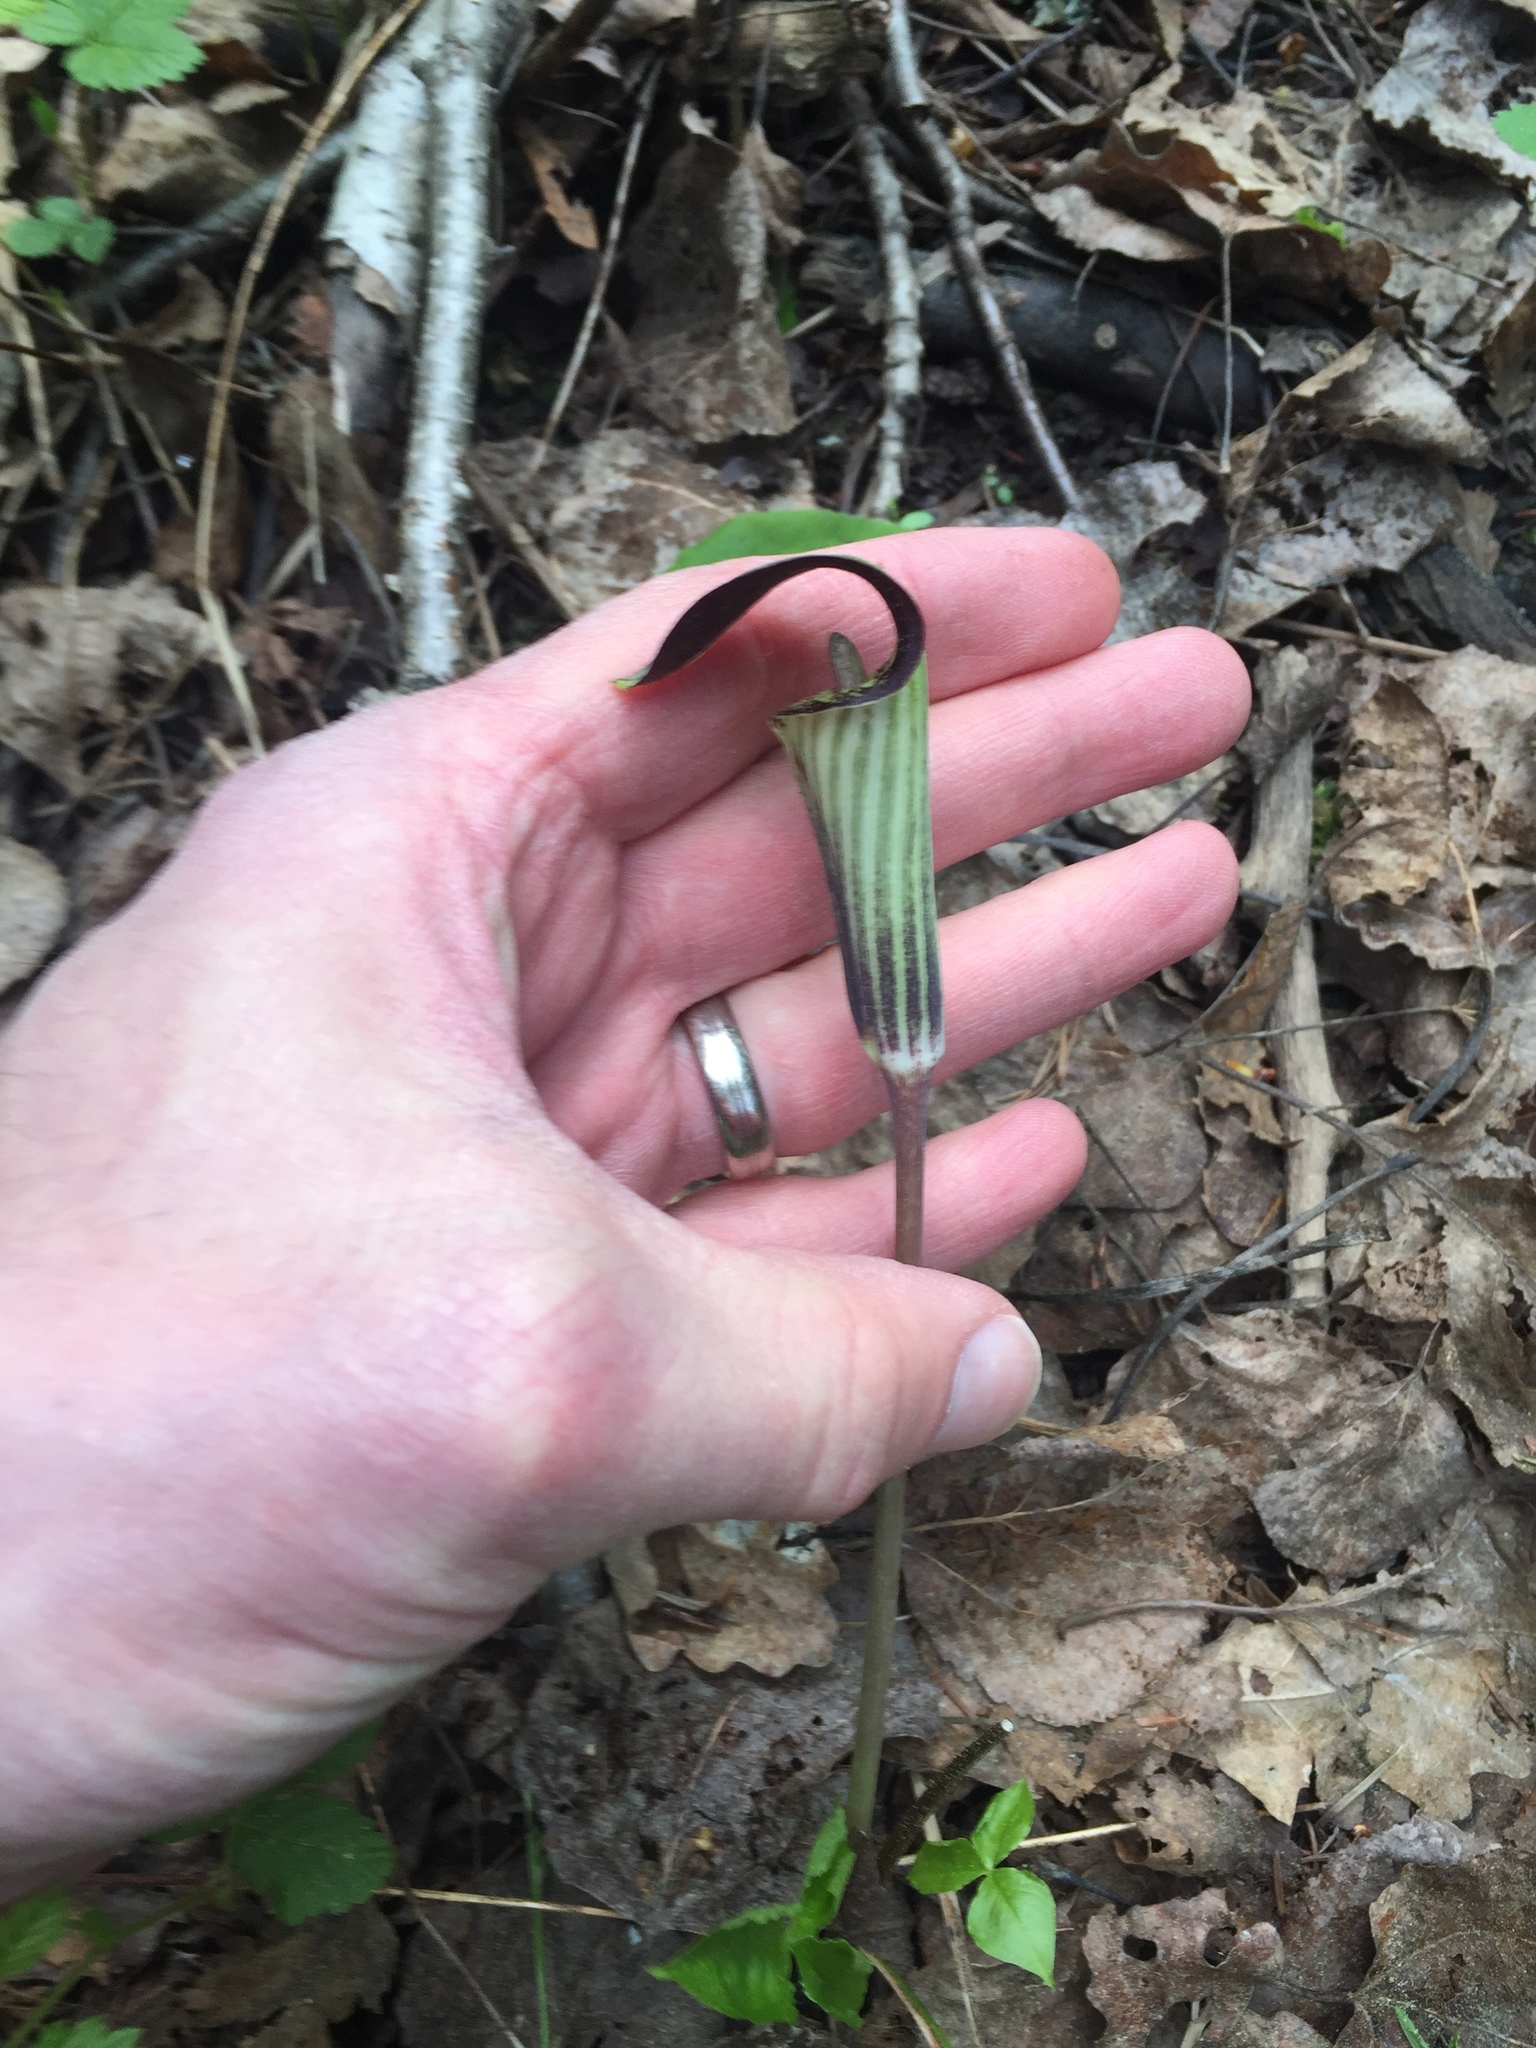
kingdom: Plantae
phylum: Tracheophyta
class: Liliopsida
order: Alismatales
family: Araceae
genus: Arisaema
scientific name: Arisaema triphyllum
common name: Jack-in-the-pulpit
